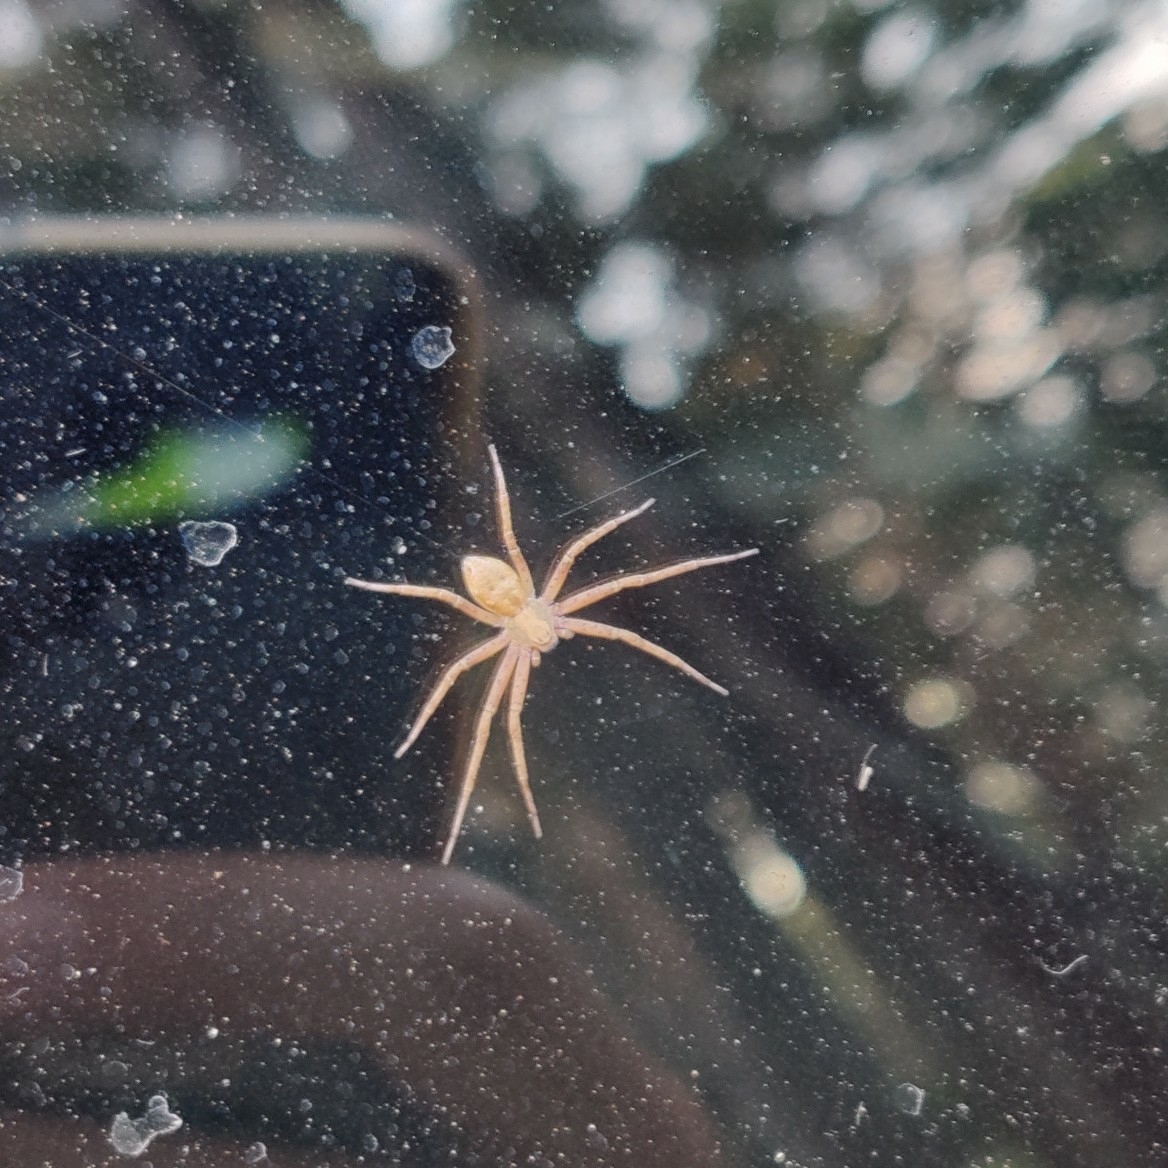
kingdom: Animalia
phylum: Arthropoda
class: Arachnida
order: Araneae
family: Philodromidae
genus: Philodromus
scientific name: Philodromus
